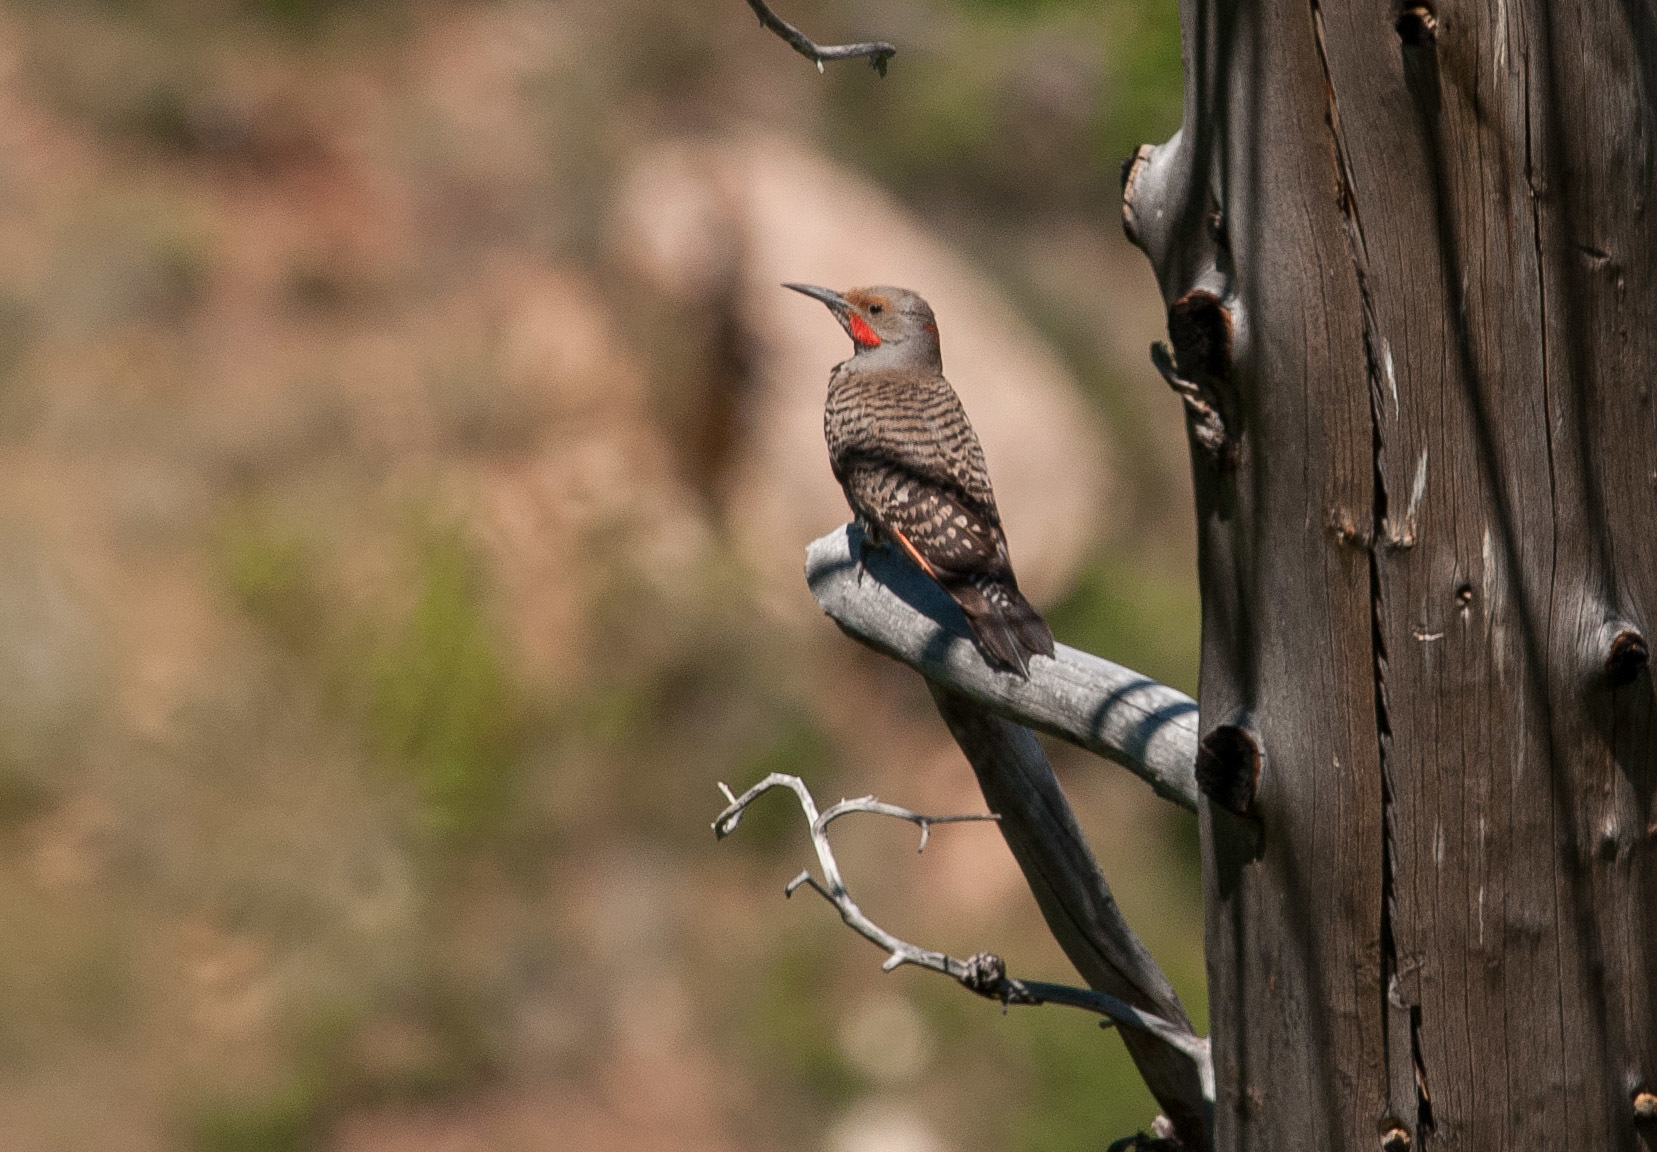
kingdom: Animalia
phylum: Chordata
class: Aves
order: Piciformes
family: Picidae
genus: Colaptes
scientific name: Colaptes auratus
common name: Northern flicker
